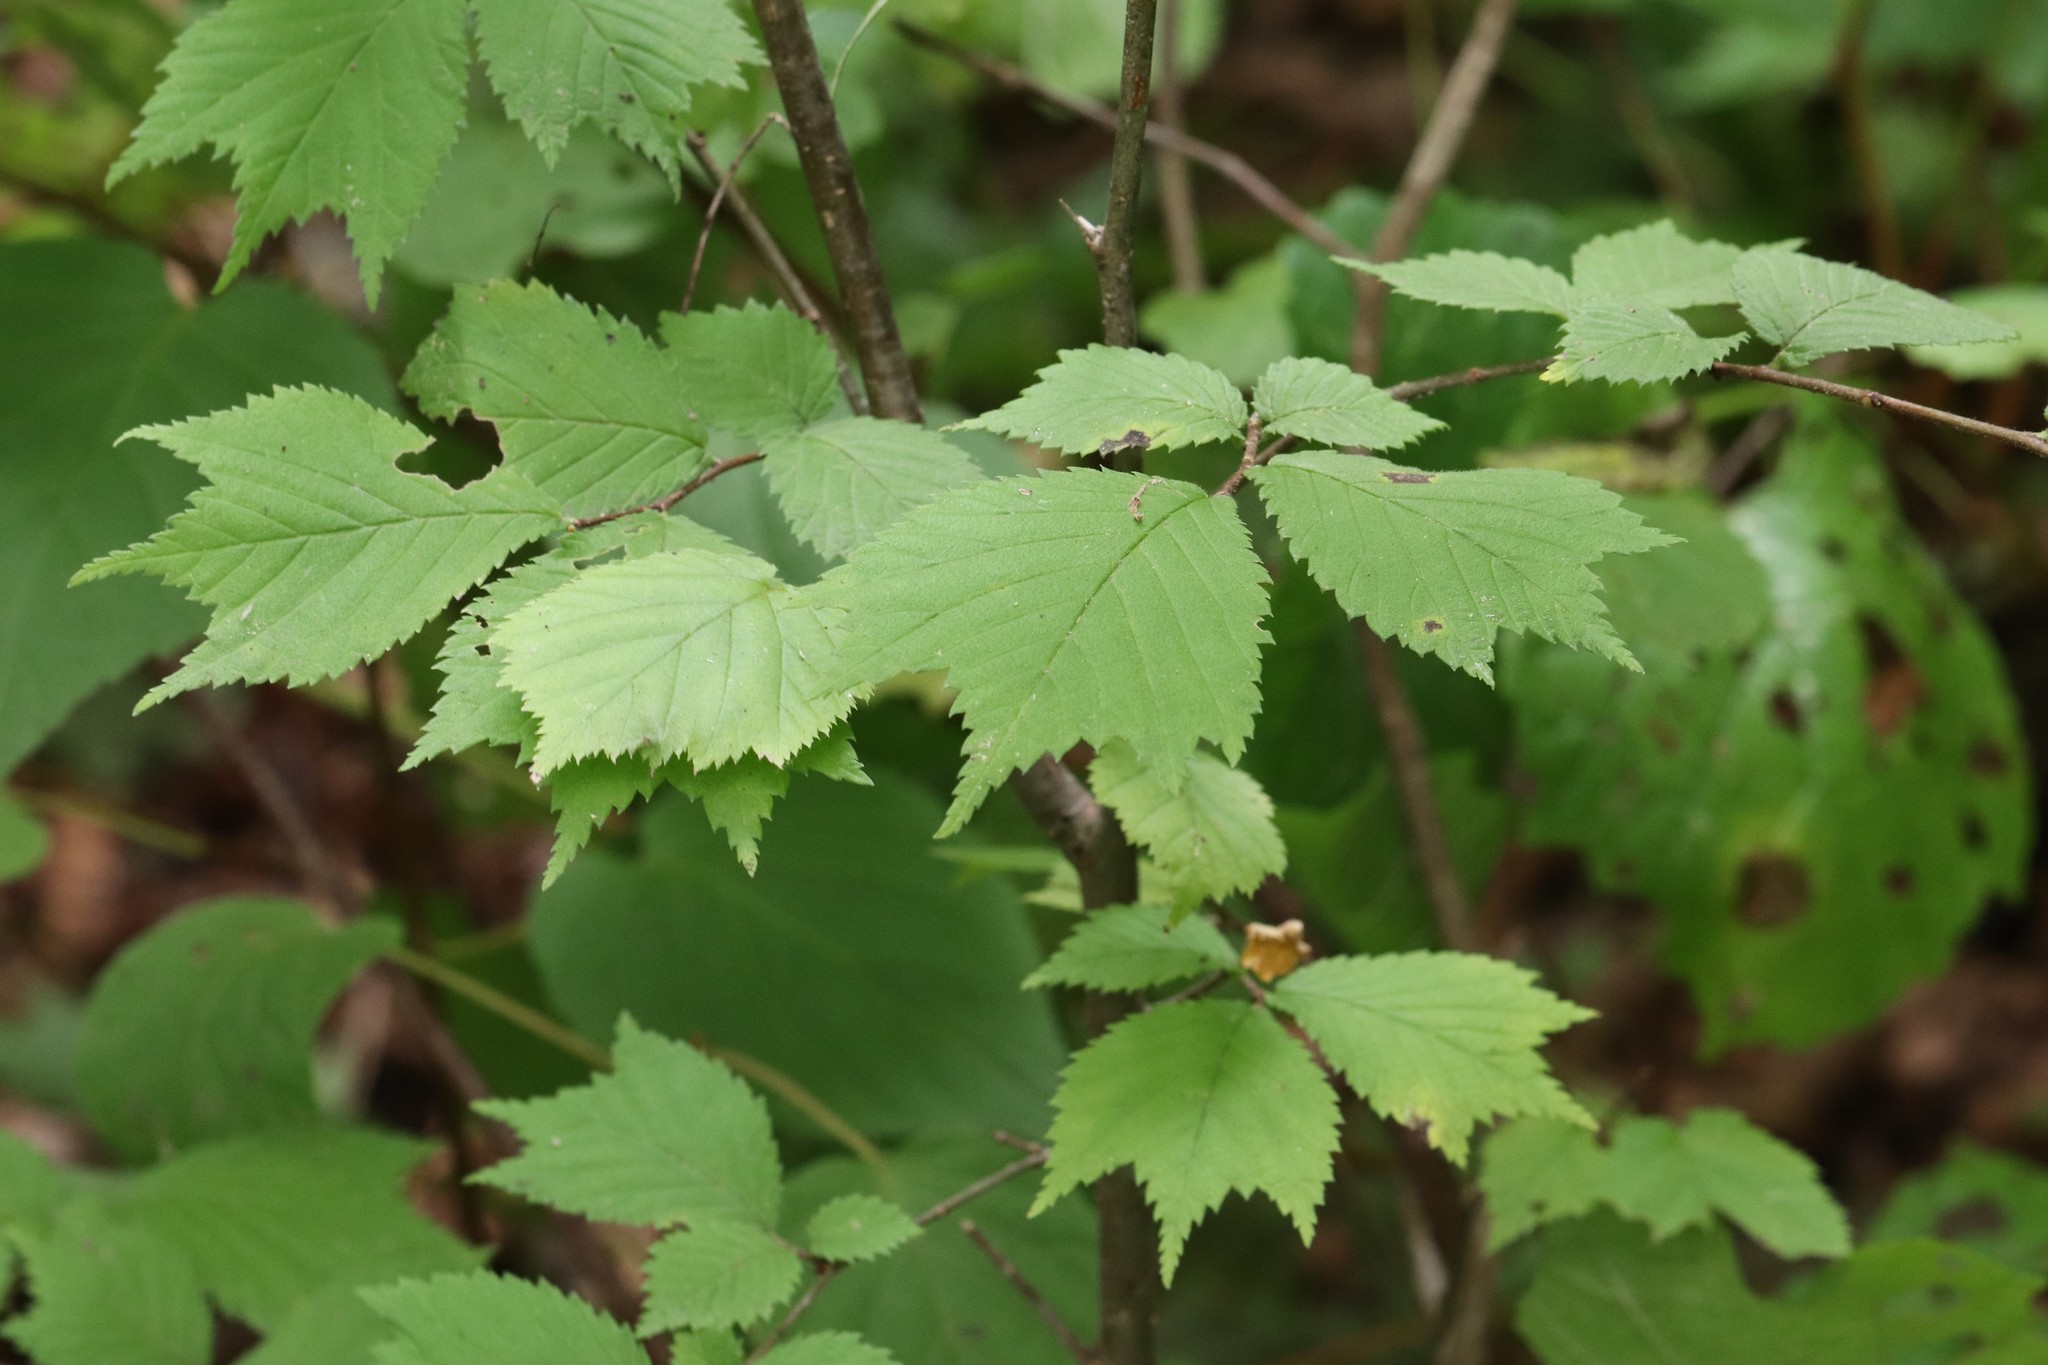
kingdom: Plantae
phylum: Tracheophyta
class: Magnoliopsida
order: Rosales
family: Ulmaceae
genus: Ulmus
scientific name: Ulmus laciniata
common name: Japanese elm
